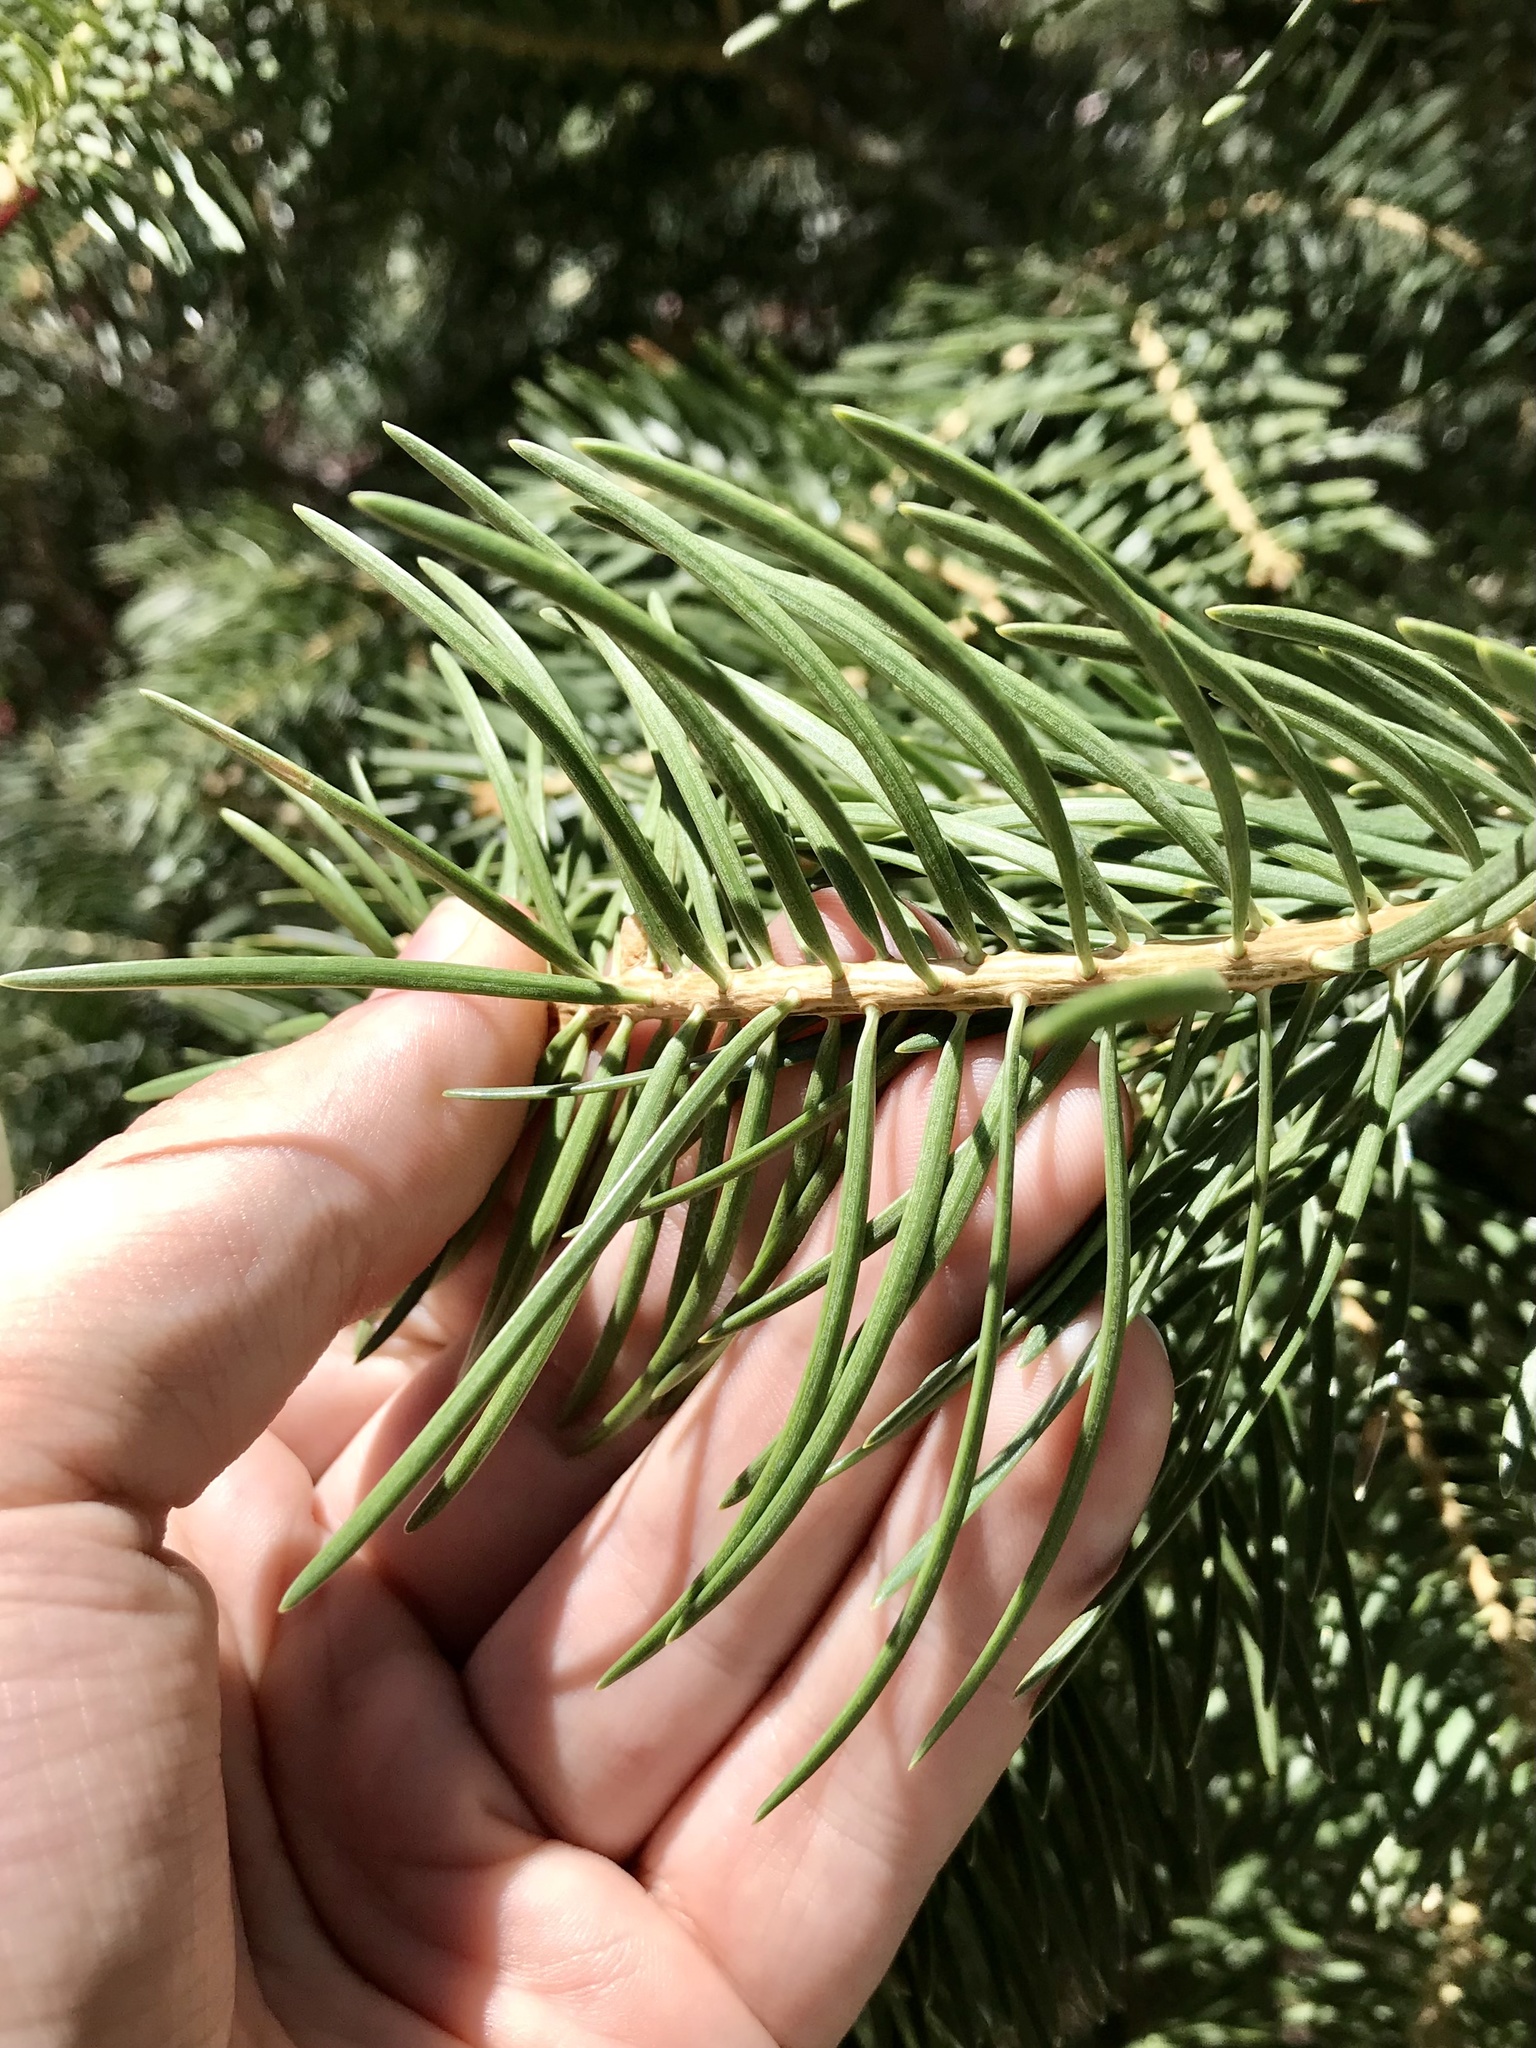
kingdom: Plantae
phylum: Tracheophyta
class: Pinopsida
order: Pinales
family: Pinaceae
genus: Abies
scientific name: Abies concolor
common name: Colorado fir
